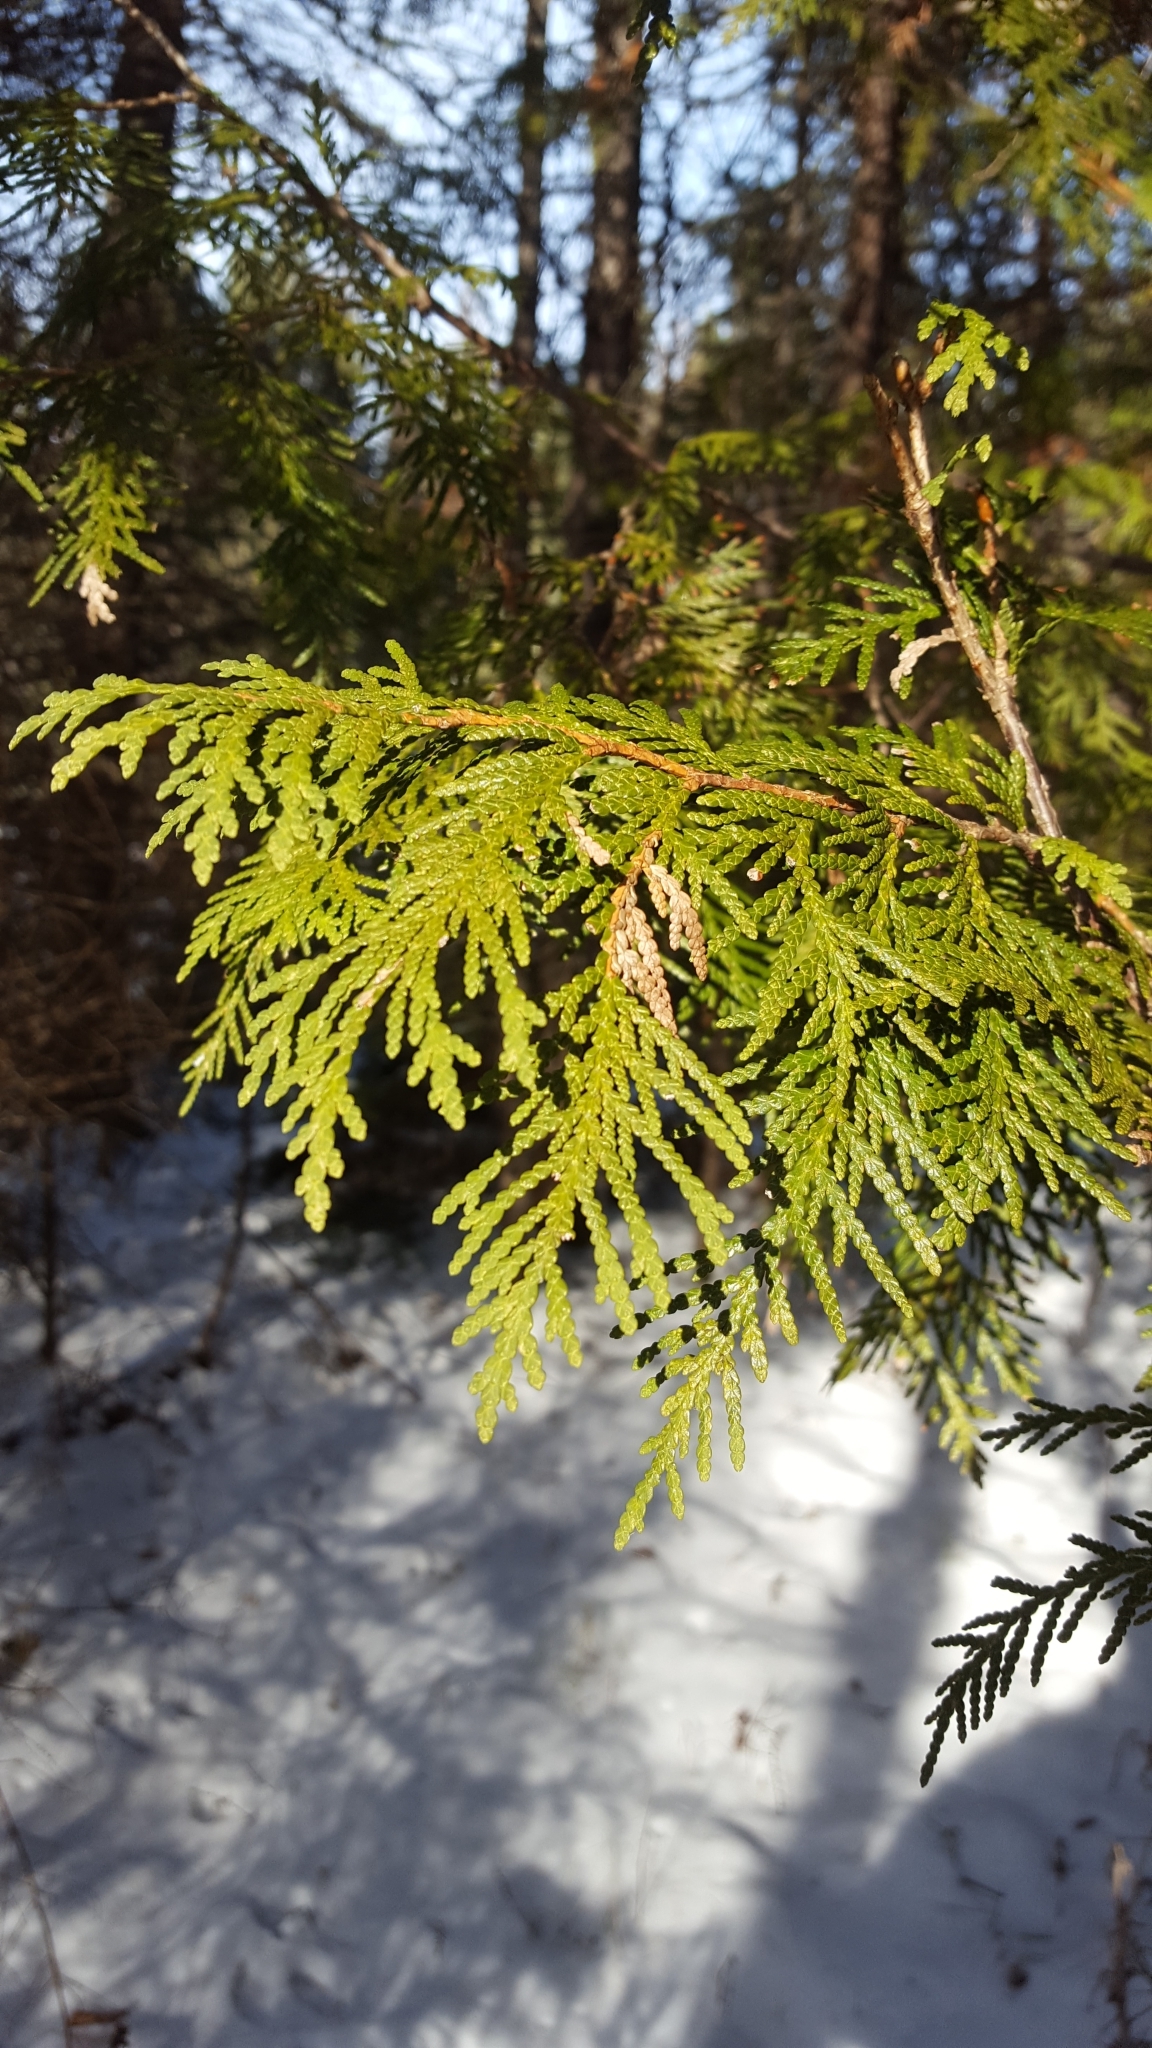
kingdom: Plantae
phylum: Tracheophyta
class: Pinopsida
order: Pinales
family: Cupressaceae
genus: Thuja
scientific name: Thuja occidentalis
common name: Northern white-cedar
